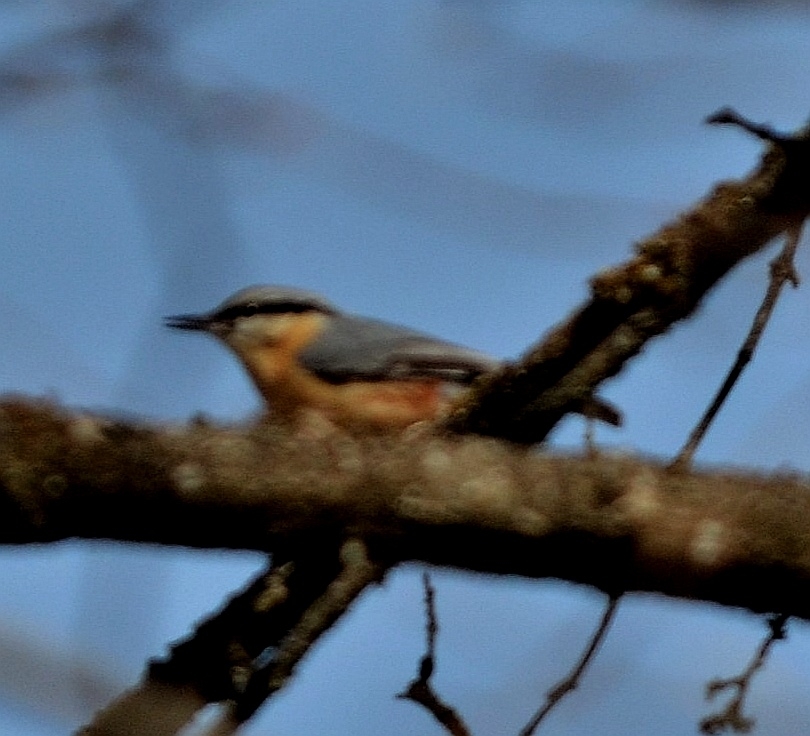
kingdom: Animalia
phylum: Chordata
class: Aves
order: Passeriformes
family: Sittidae
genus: Sitta
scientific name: Sitta europaea
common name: Eurasian nuthatch
